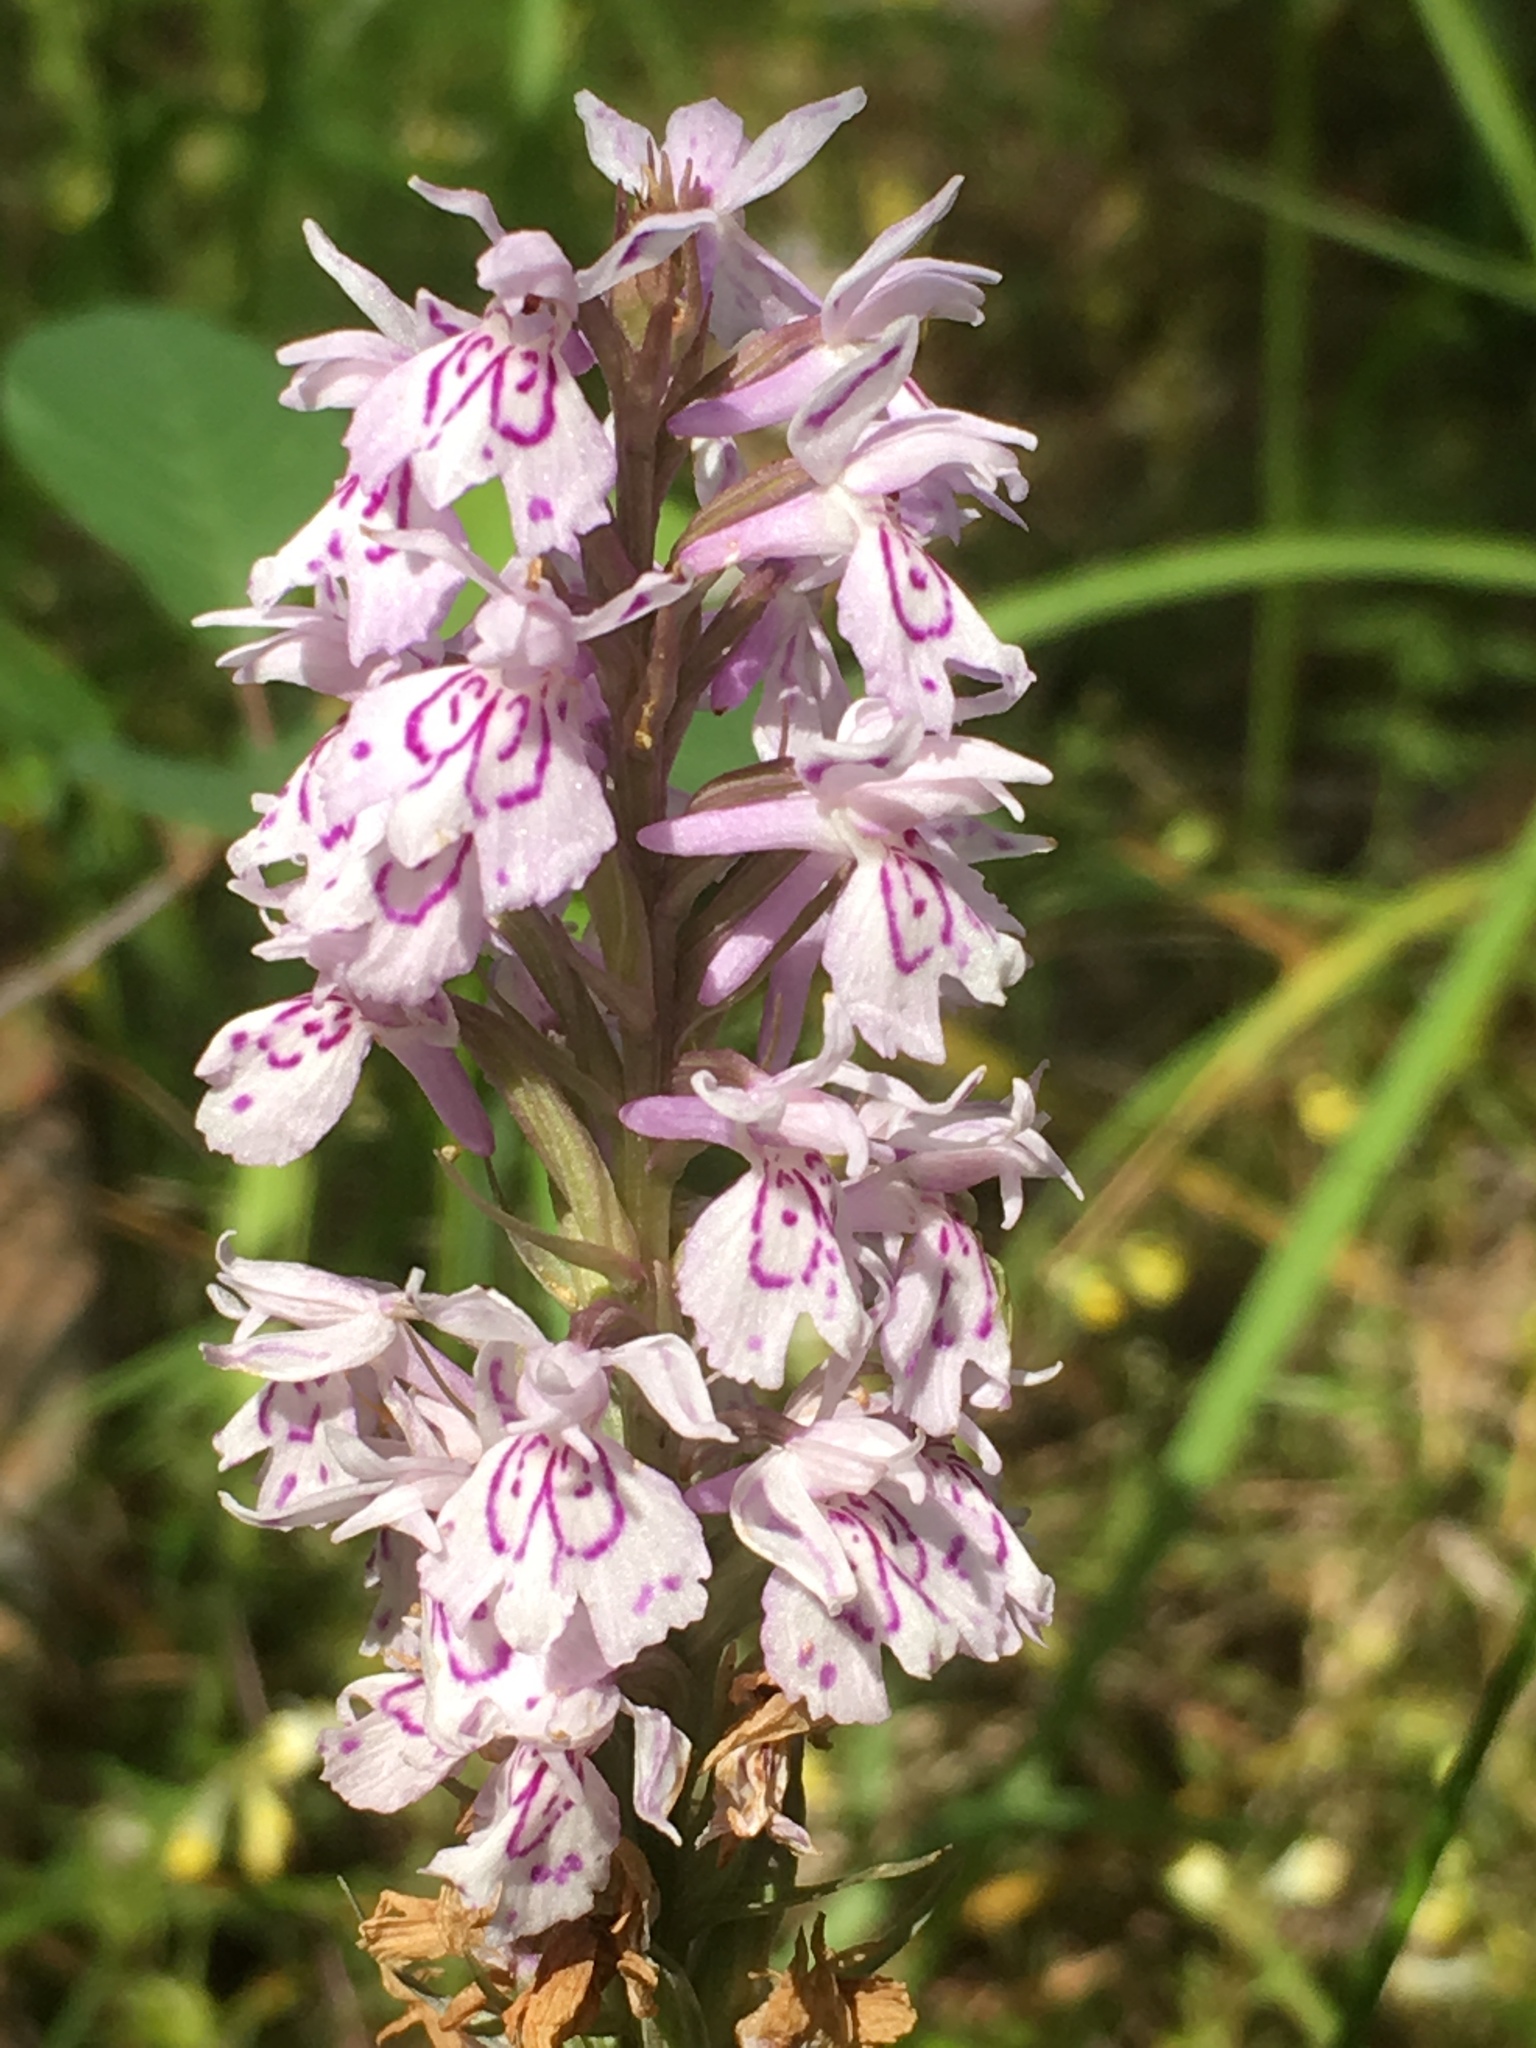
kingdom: Plantae
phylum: Tracheophyta
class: Liliopsida
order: Asparagales
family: Orchidaceae
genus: Dactylorhiza
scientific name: Dactylorhiza maculata
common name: Heath spotted-orchid
